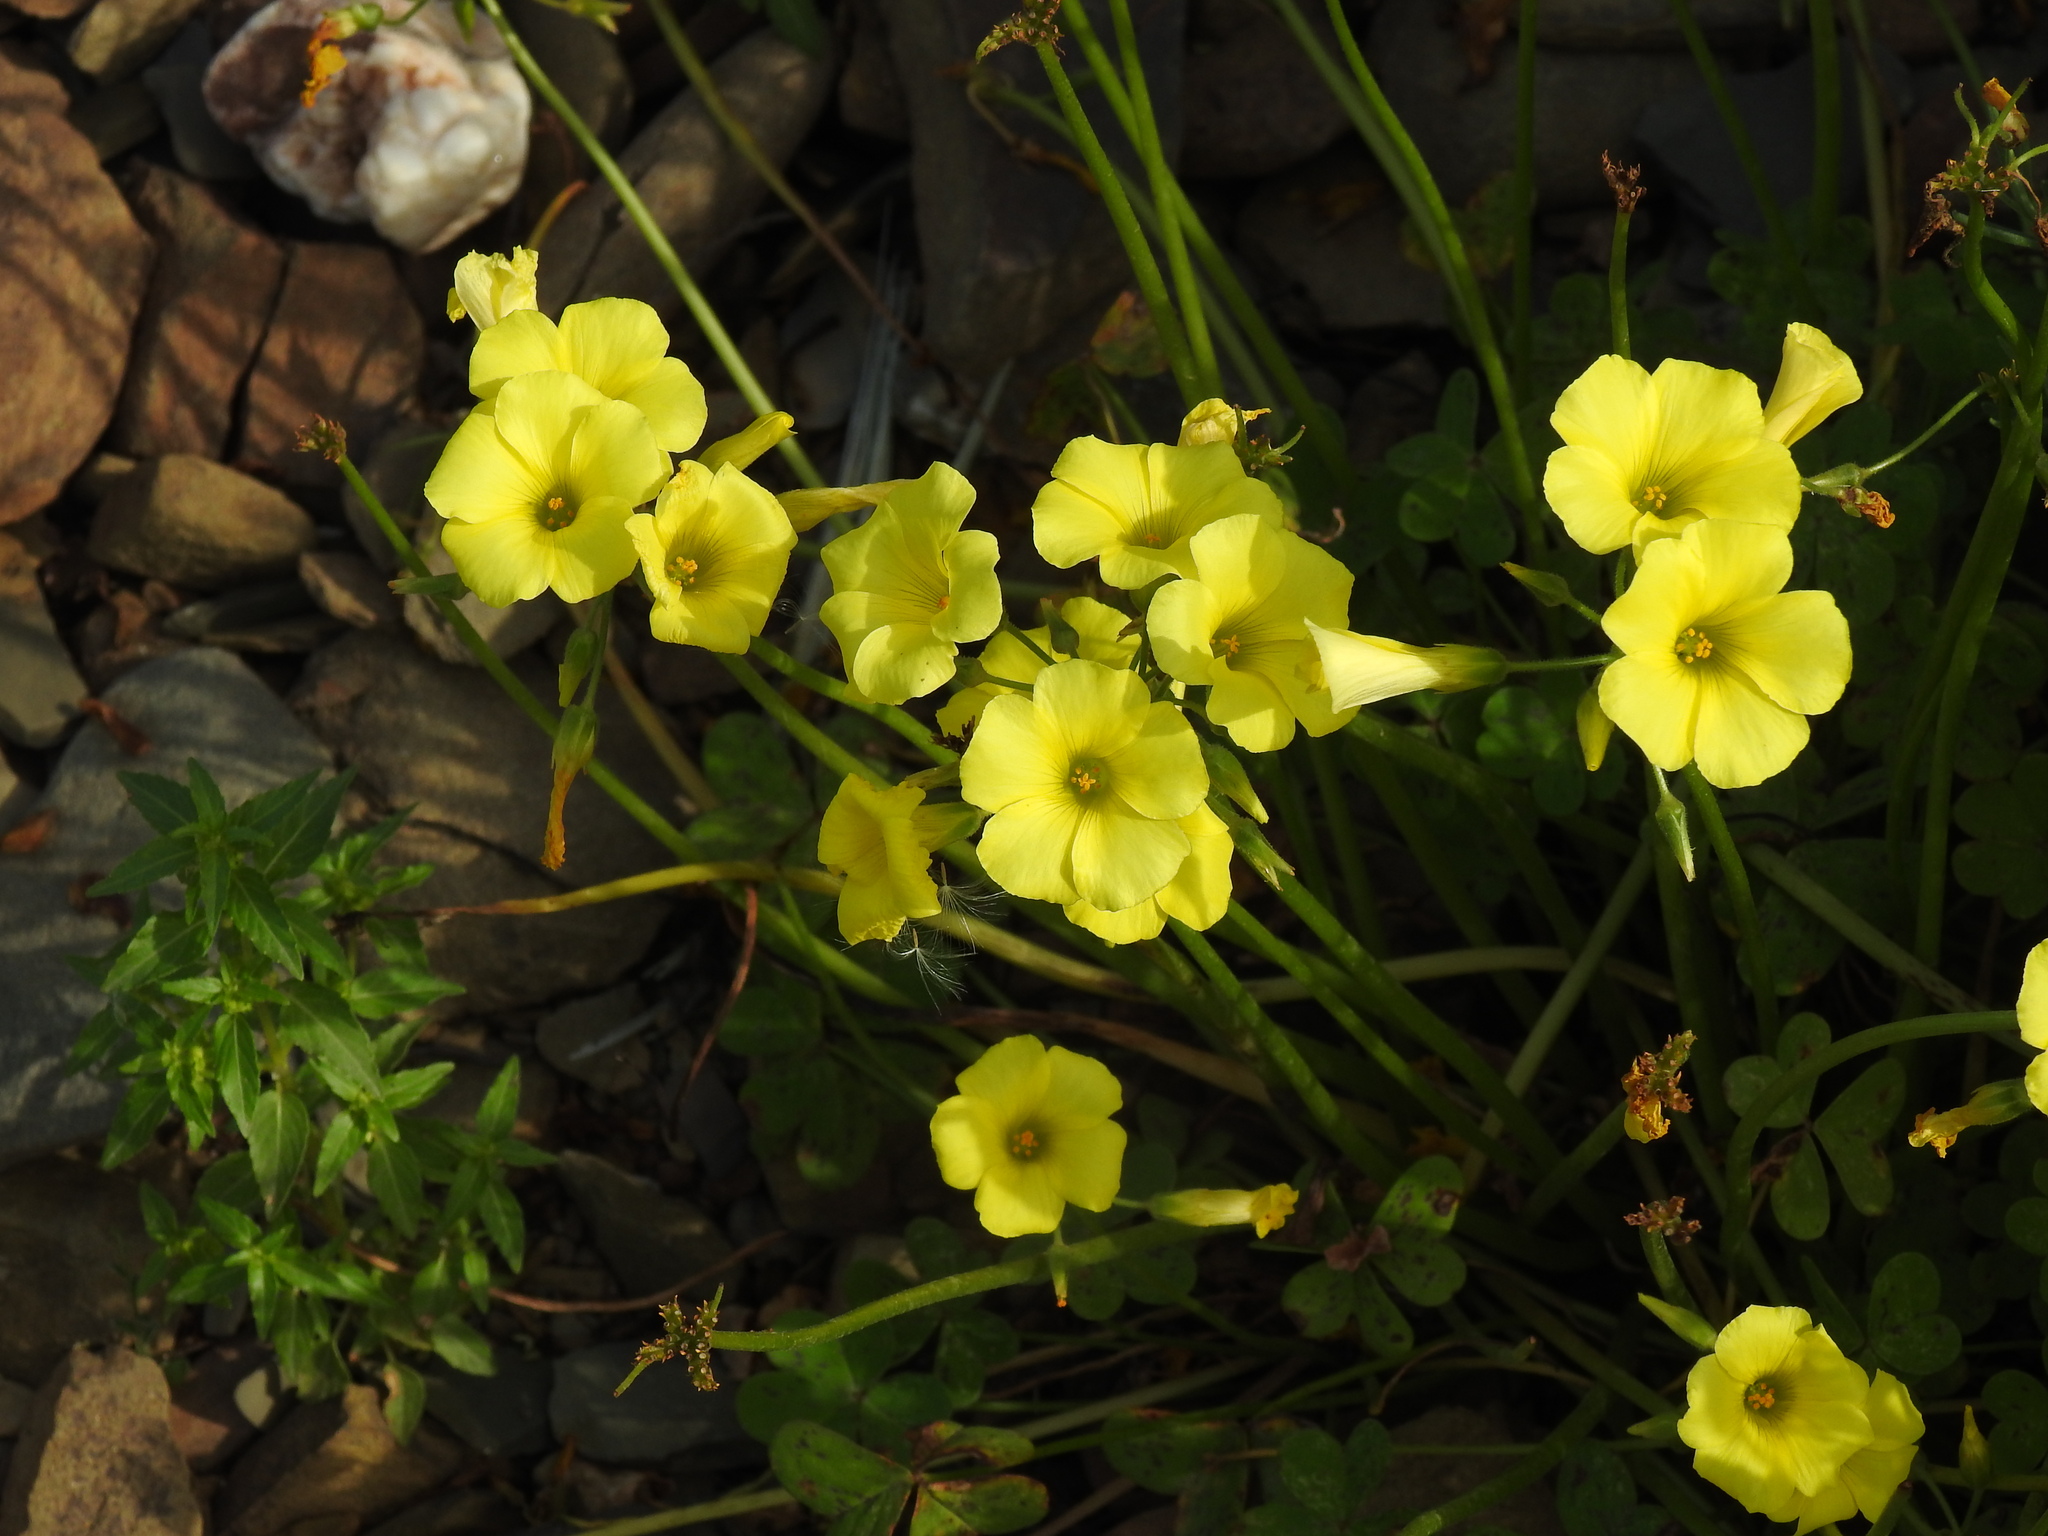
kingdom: Plantae
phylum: Tracheophyta
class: Magnoliopsida
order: Oxalidales
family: Oxalidaceae
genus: Oxalis
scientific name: Oxalis pes-caprae
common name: Bermuda-buttercup
